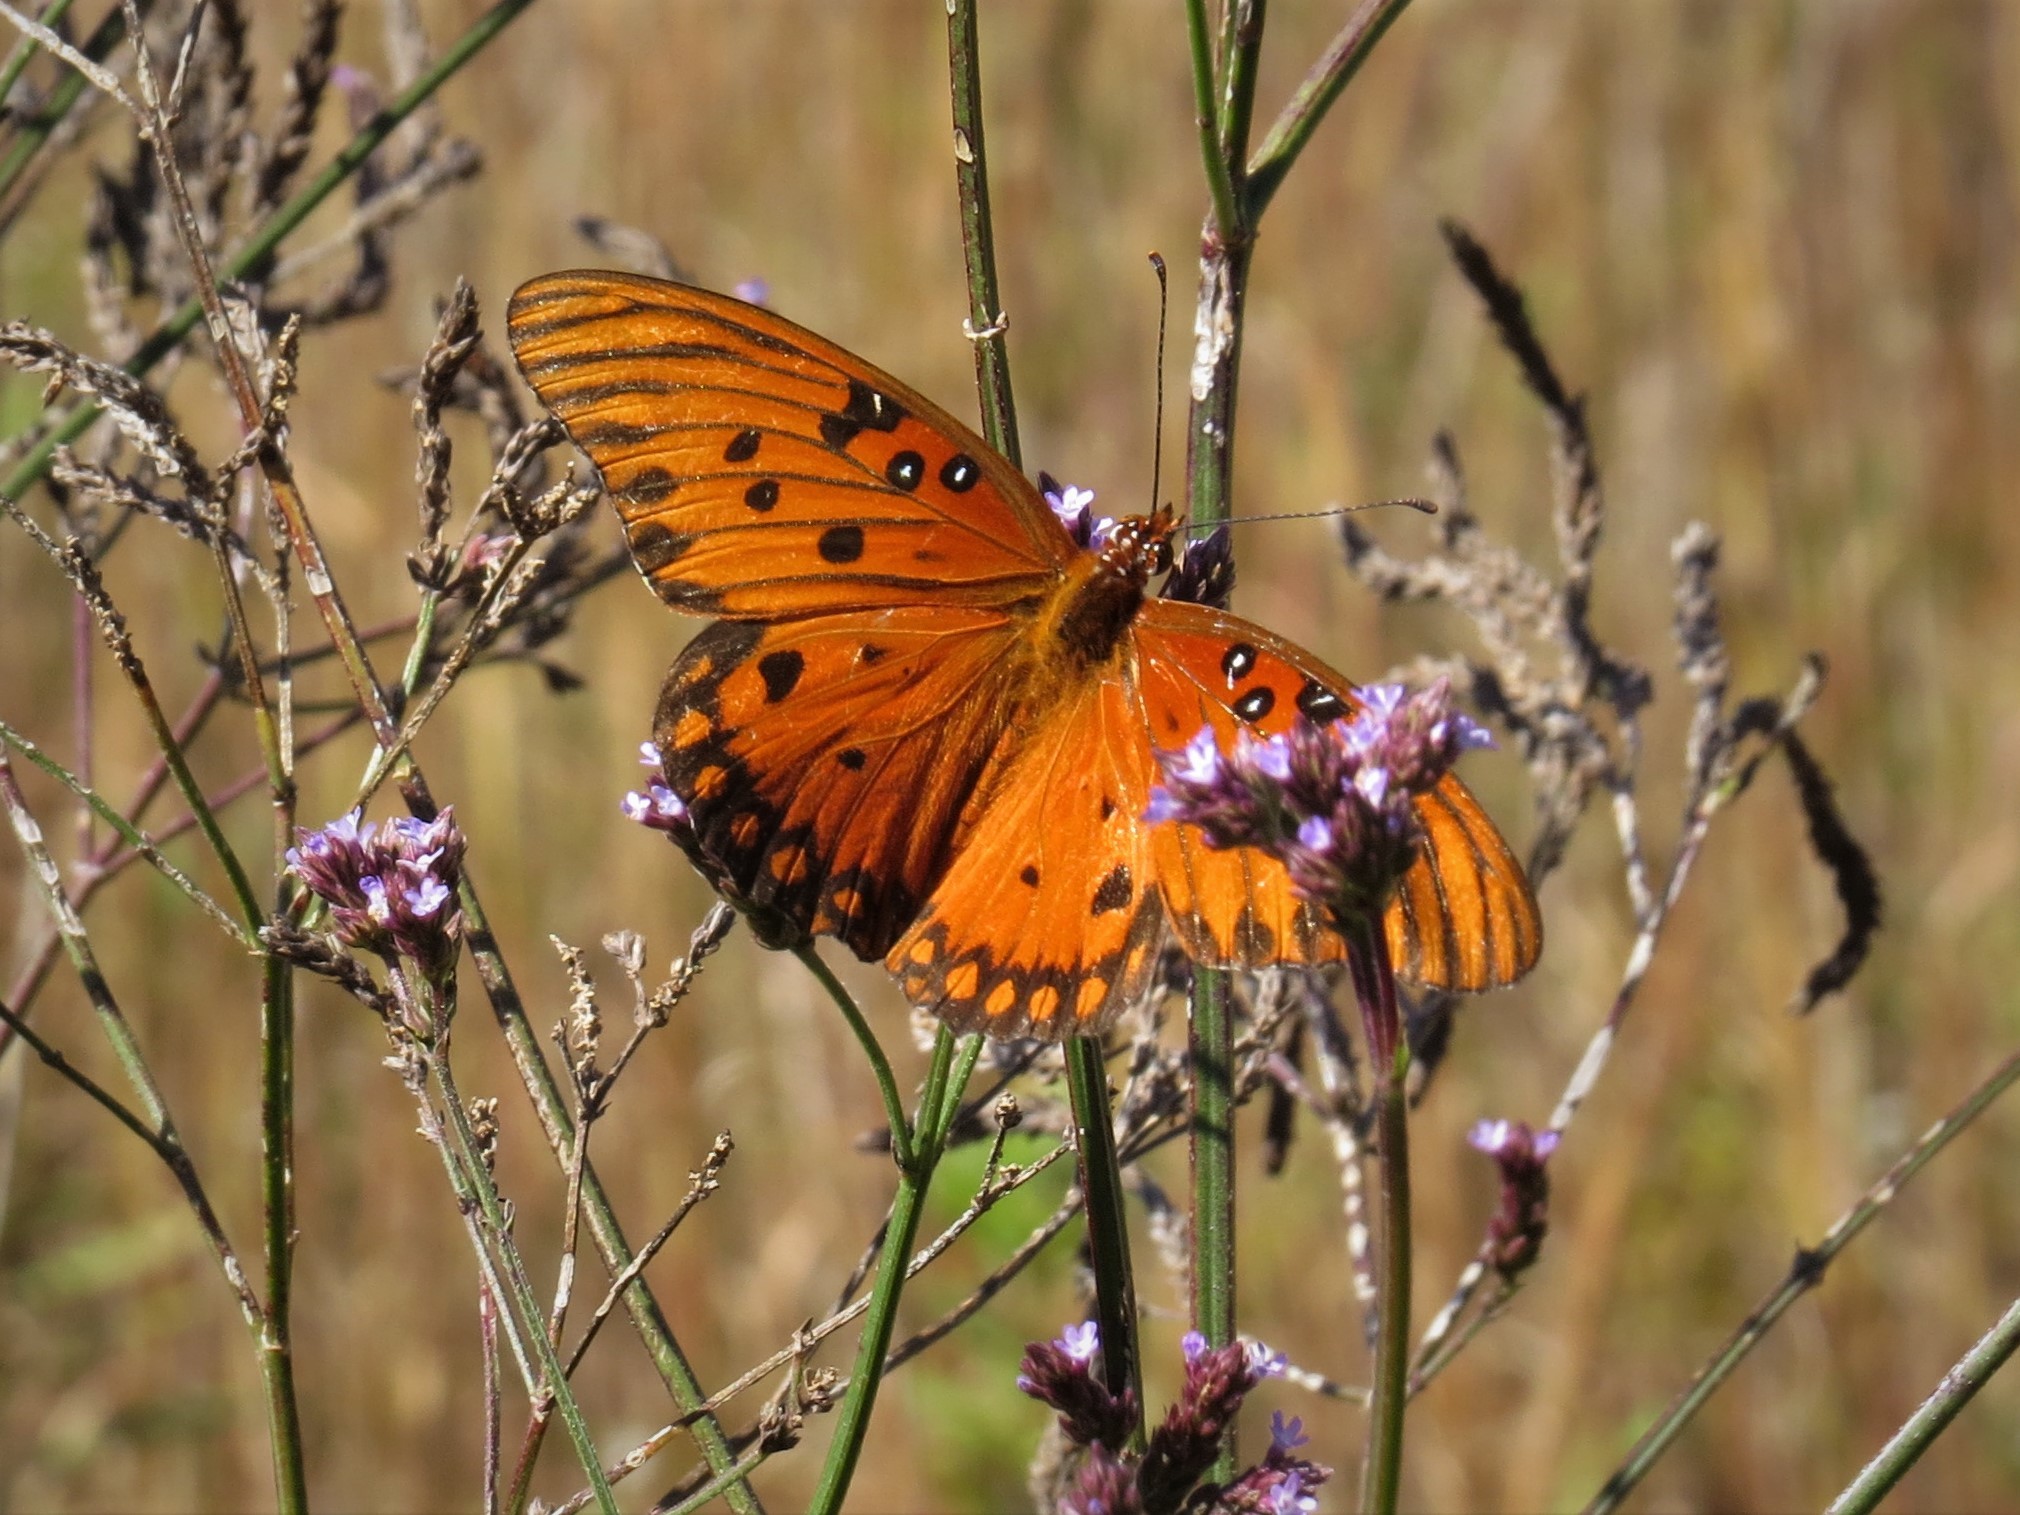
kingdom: Animalia
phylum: Arthropoda
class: Insecta
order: Lepidoptera
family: Nymphalidae
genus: Dione
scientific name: Dione vanillae
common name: Gulf fritillary
